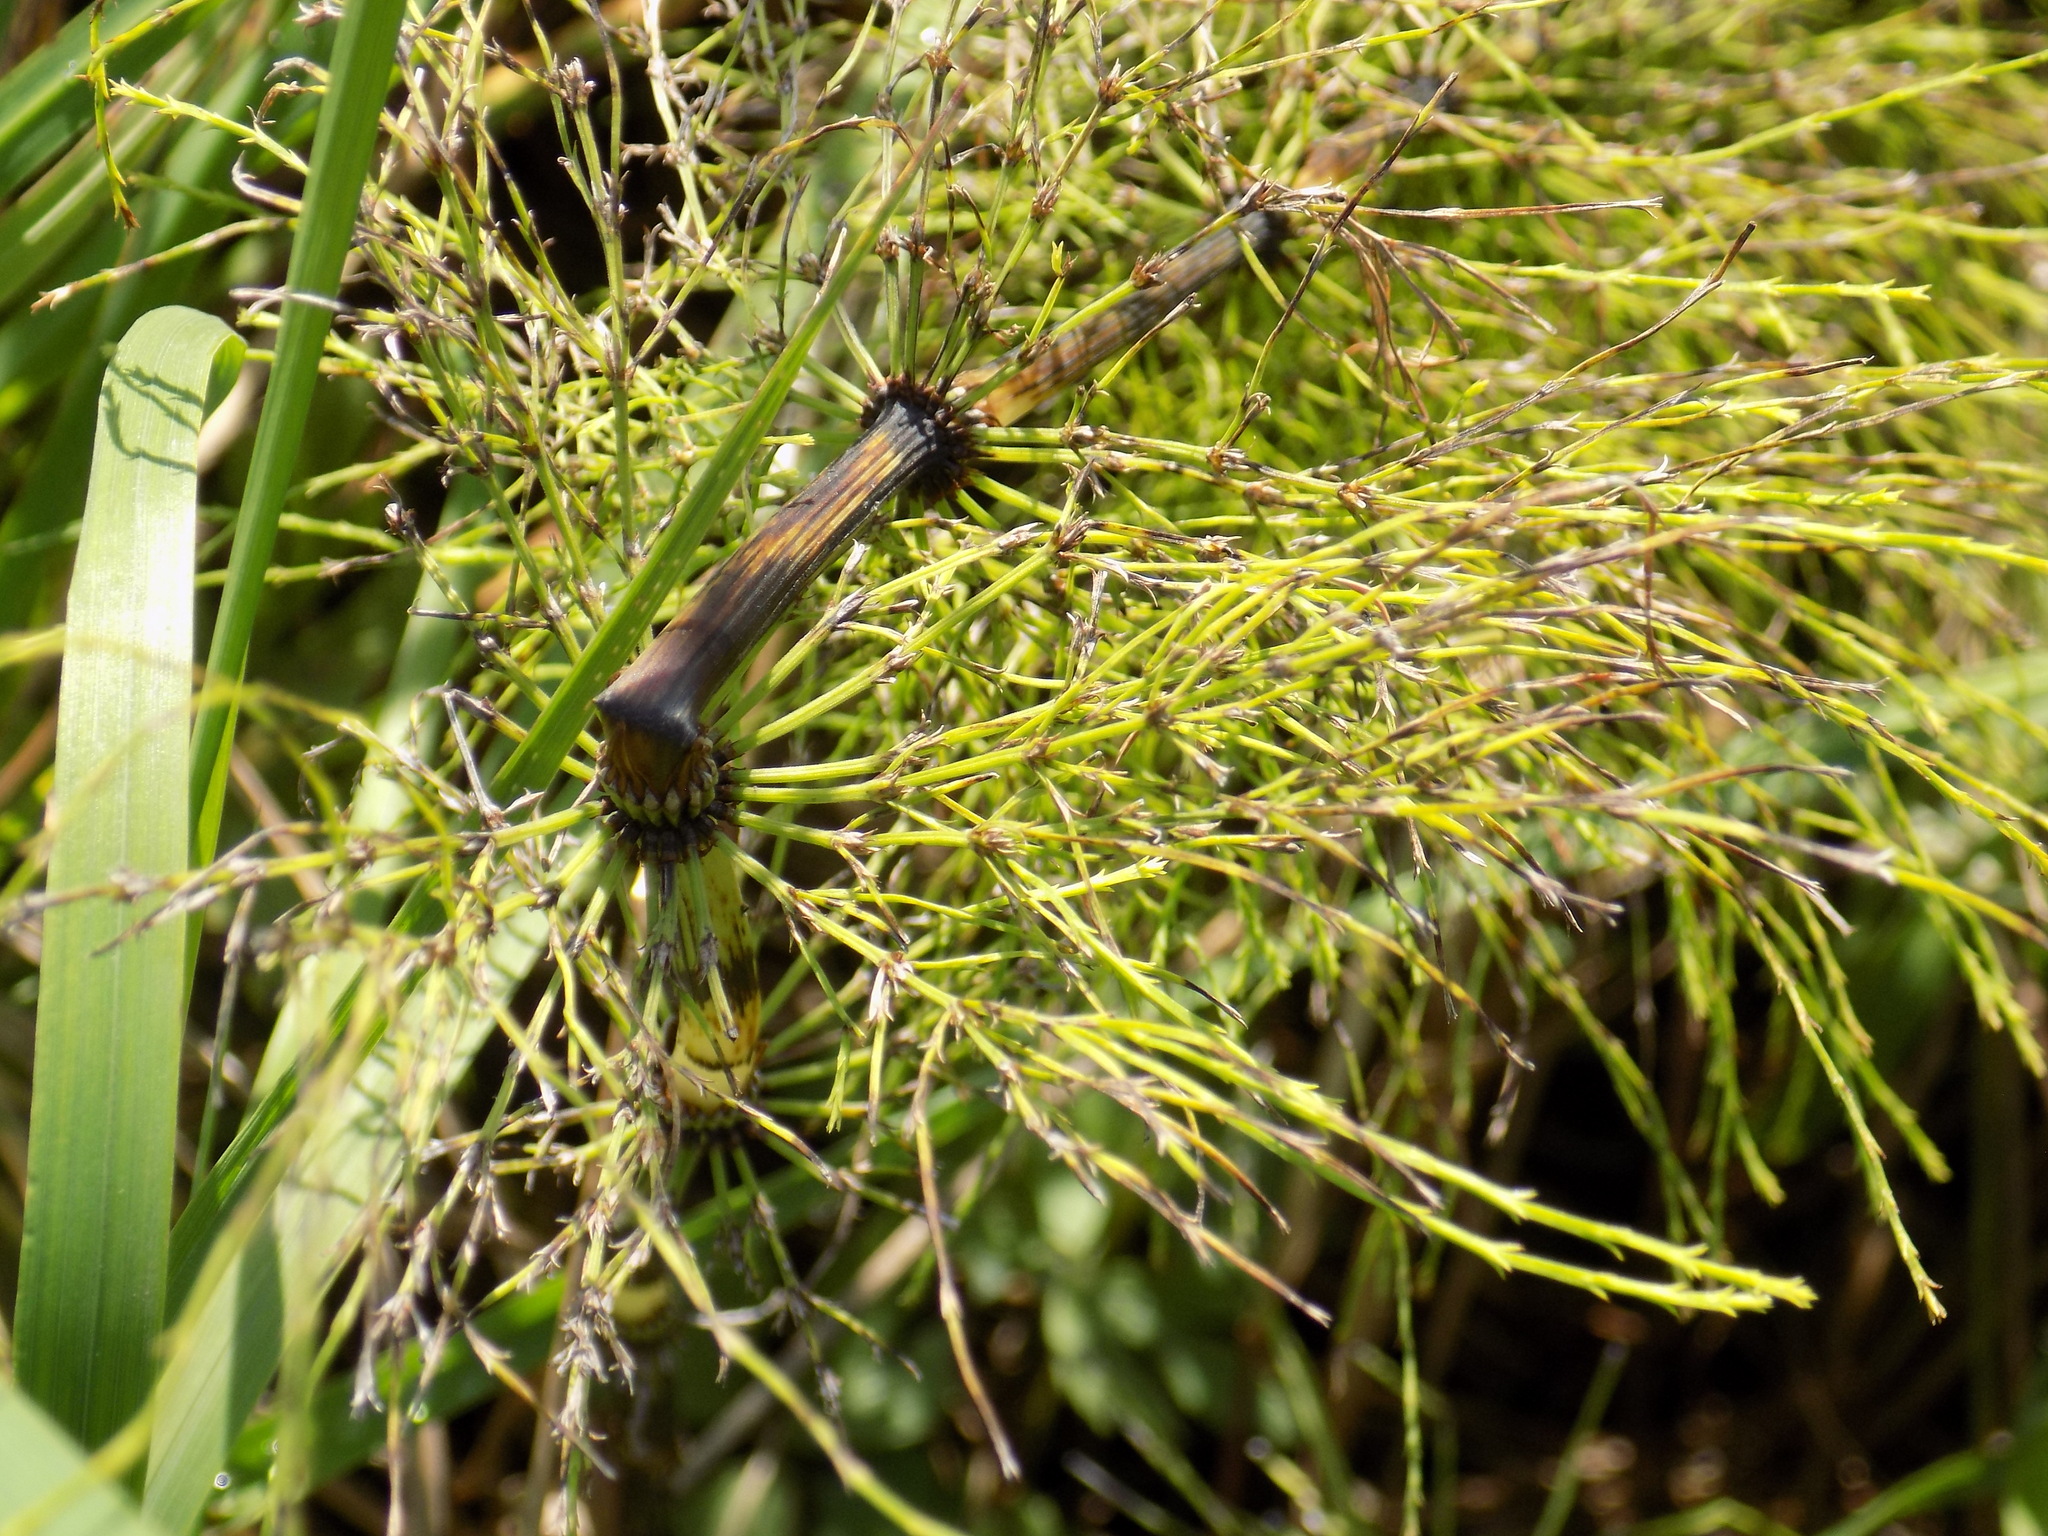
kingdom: Plantae
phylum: Tracheophyta
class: Polypodiopsida
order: Equisetales
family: Equisetaceae
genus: Equisetum
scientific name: Equisetum sylvaticum
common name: Wood horsetail
